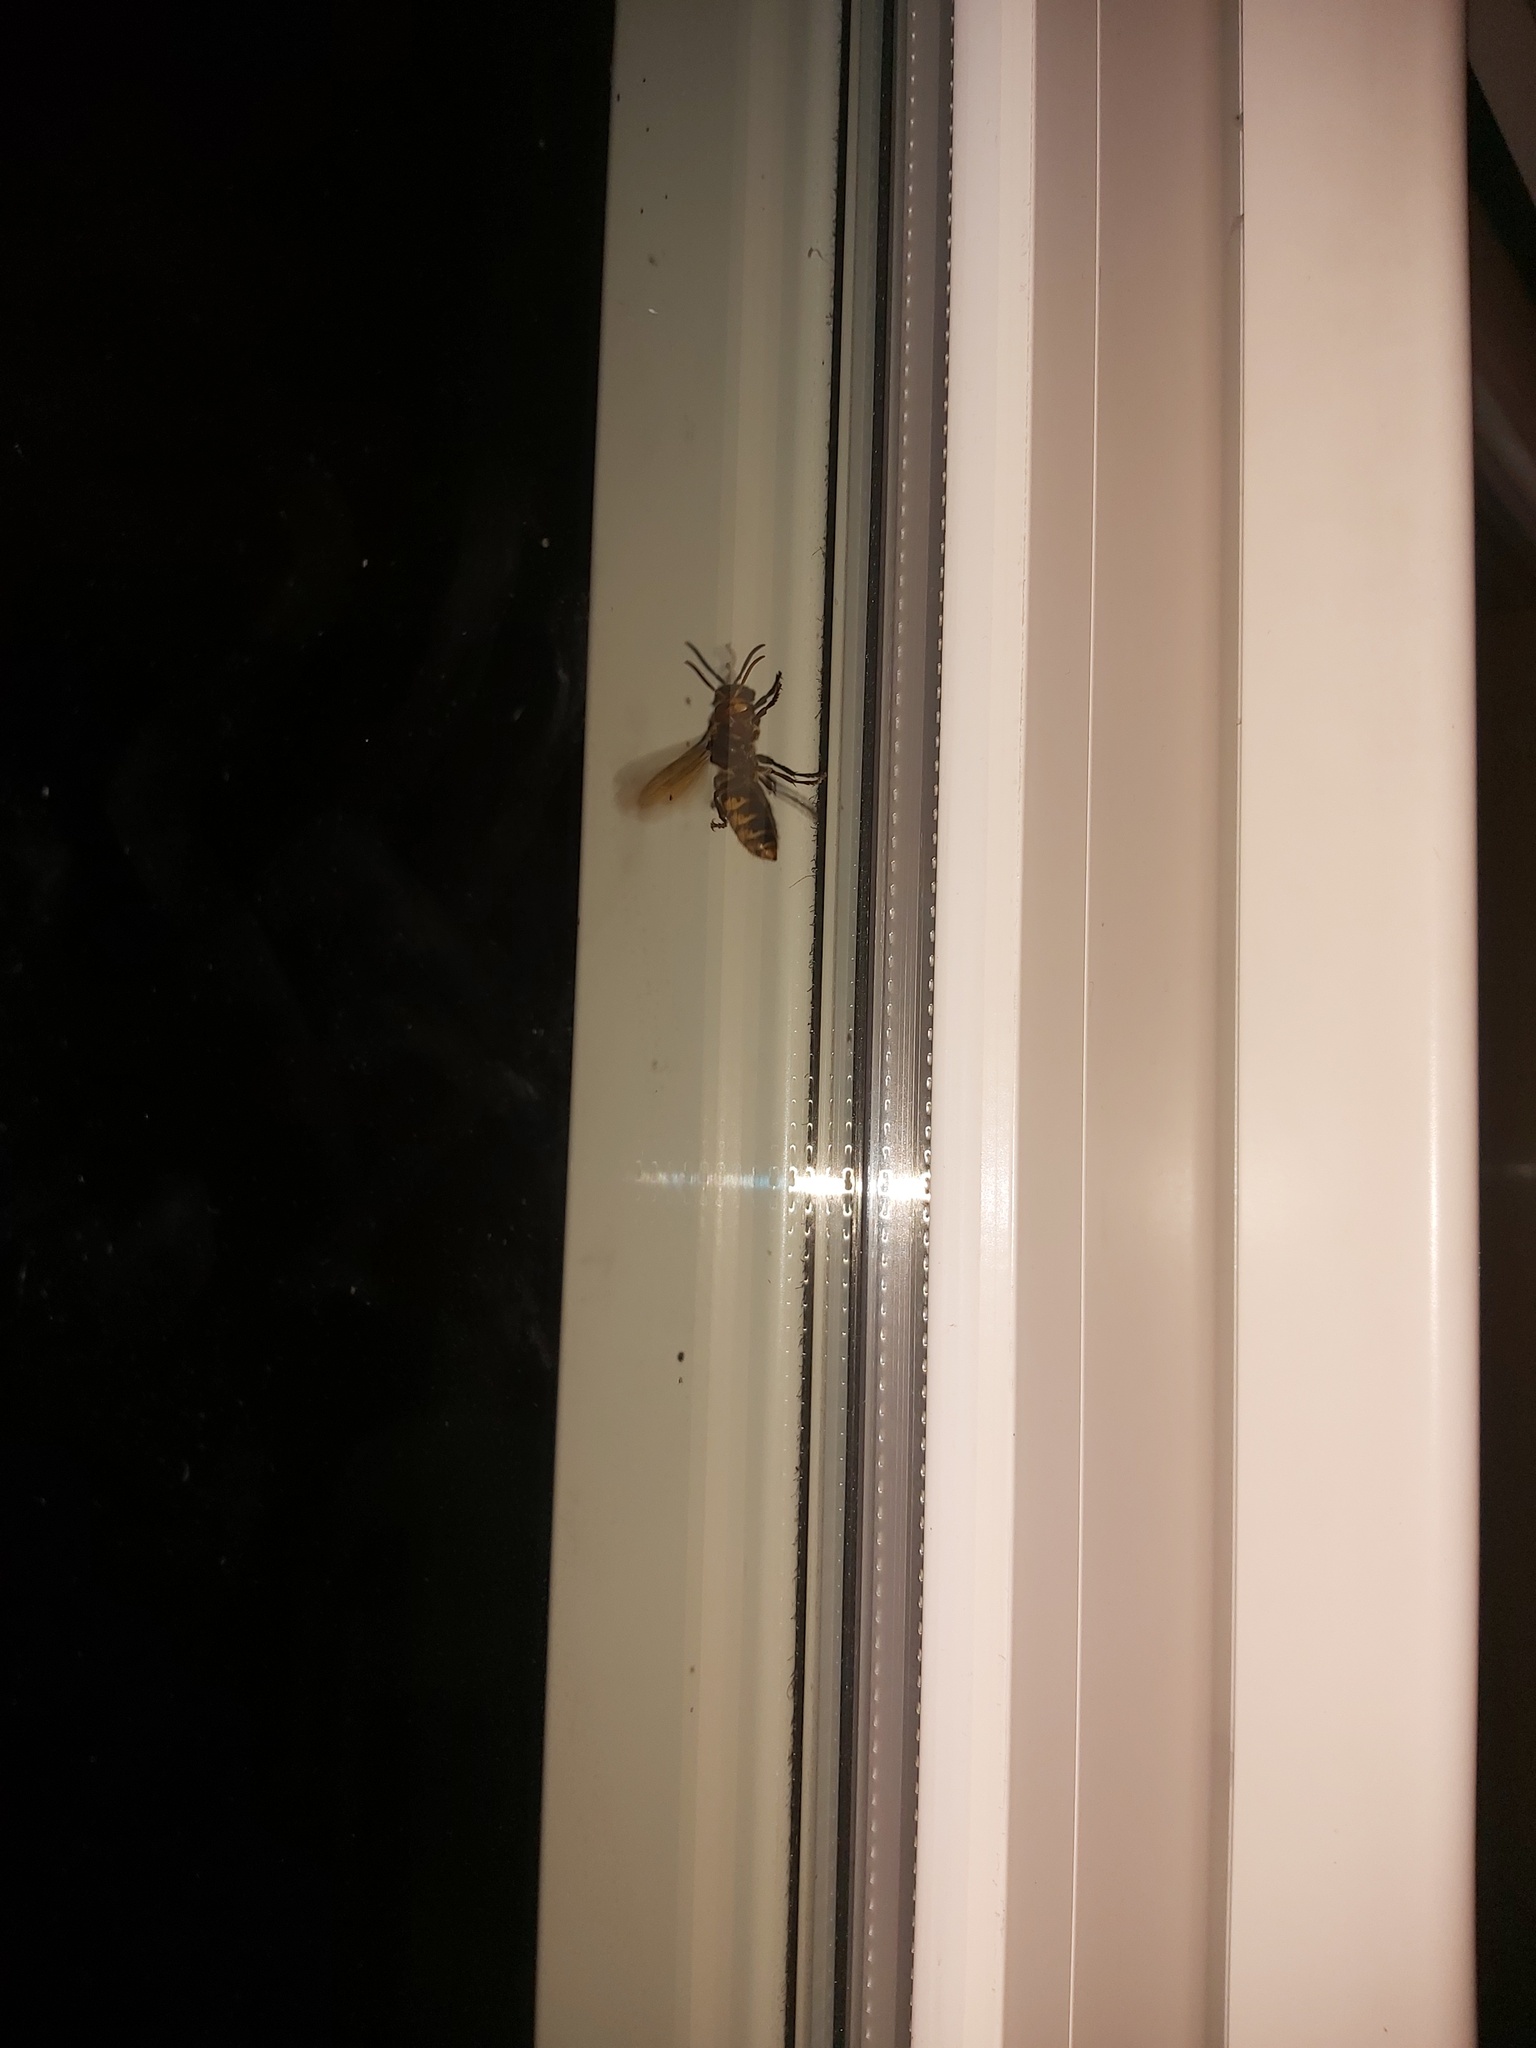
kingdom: Animalia
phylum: Arthropoda
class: Insecta
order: Hymenoptera
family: Vespidae
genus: Vespa
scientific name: Vespa crabro
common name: Hornet
